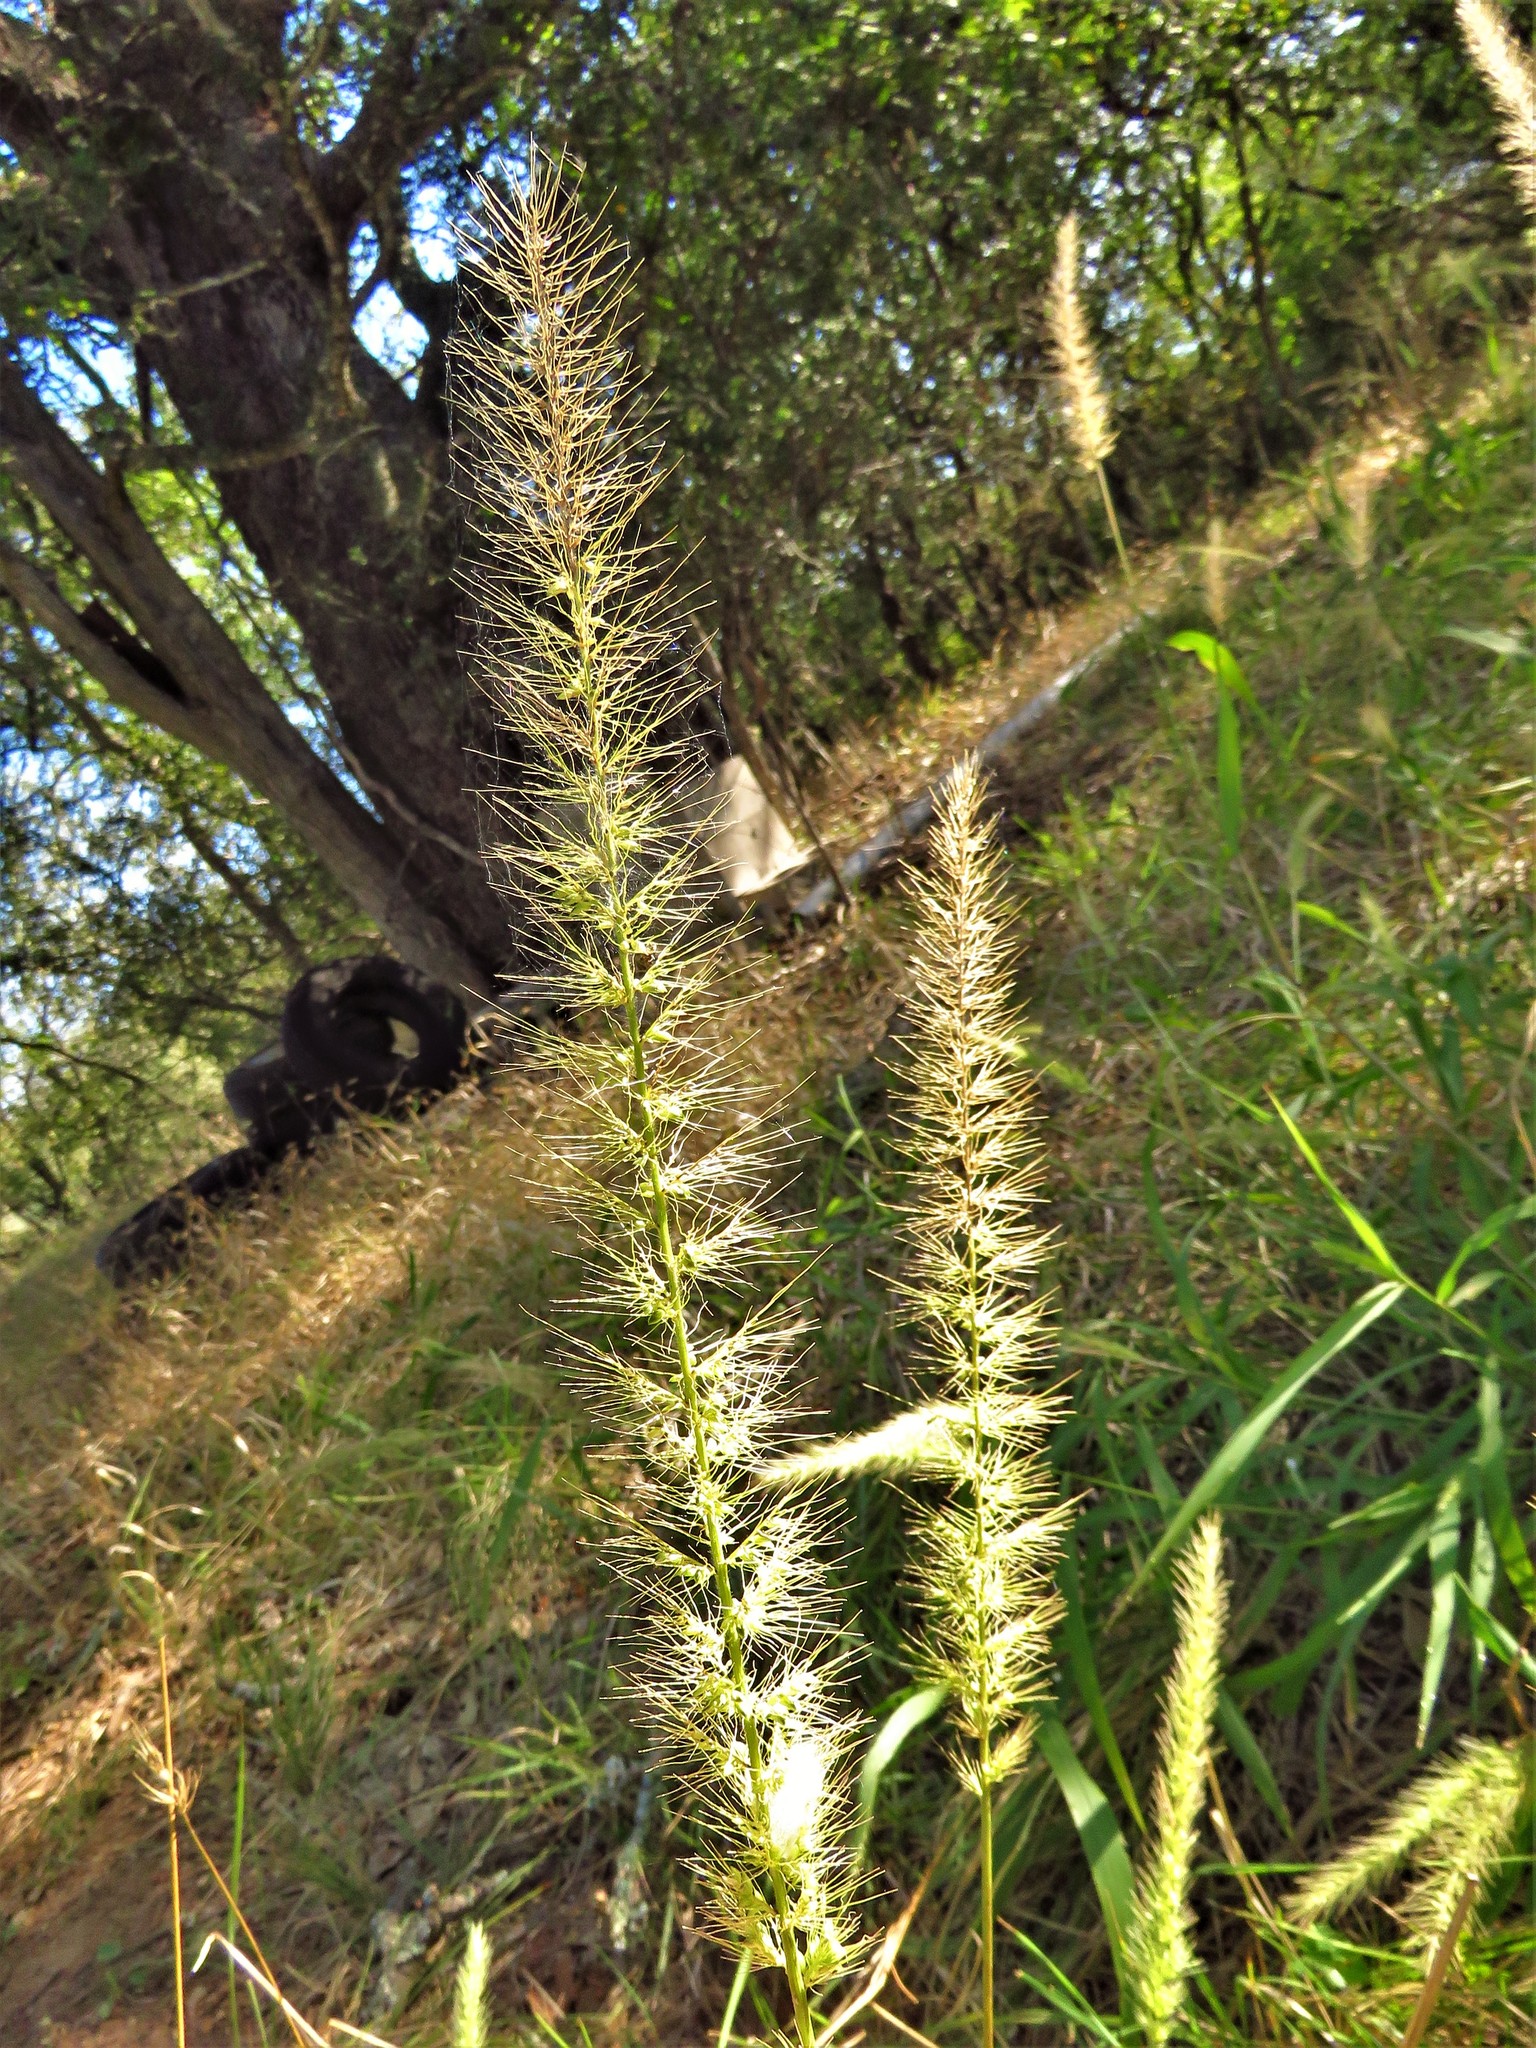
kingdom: Plantae
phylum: Tracheophyta
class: Liliopsida
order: Poales
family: Poaceae
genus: Setaria
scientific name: Setaria scheelei
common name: Southwestern bristle grass
